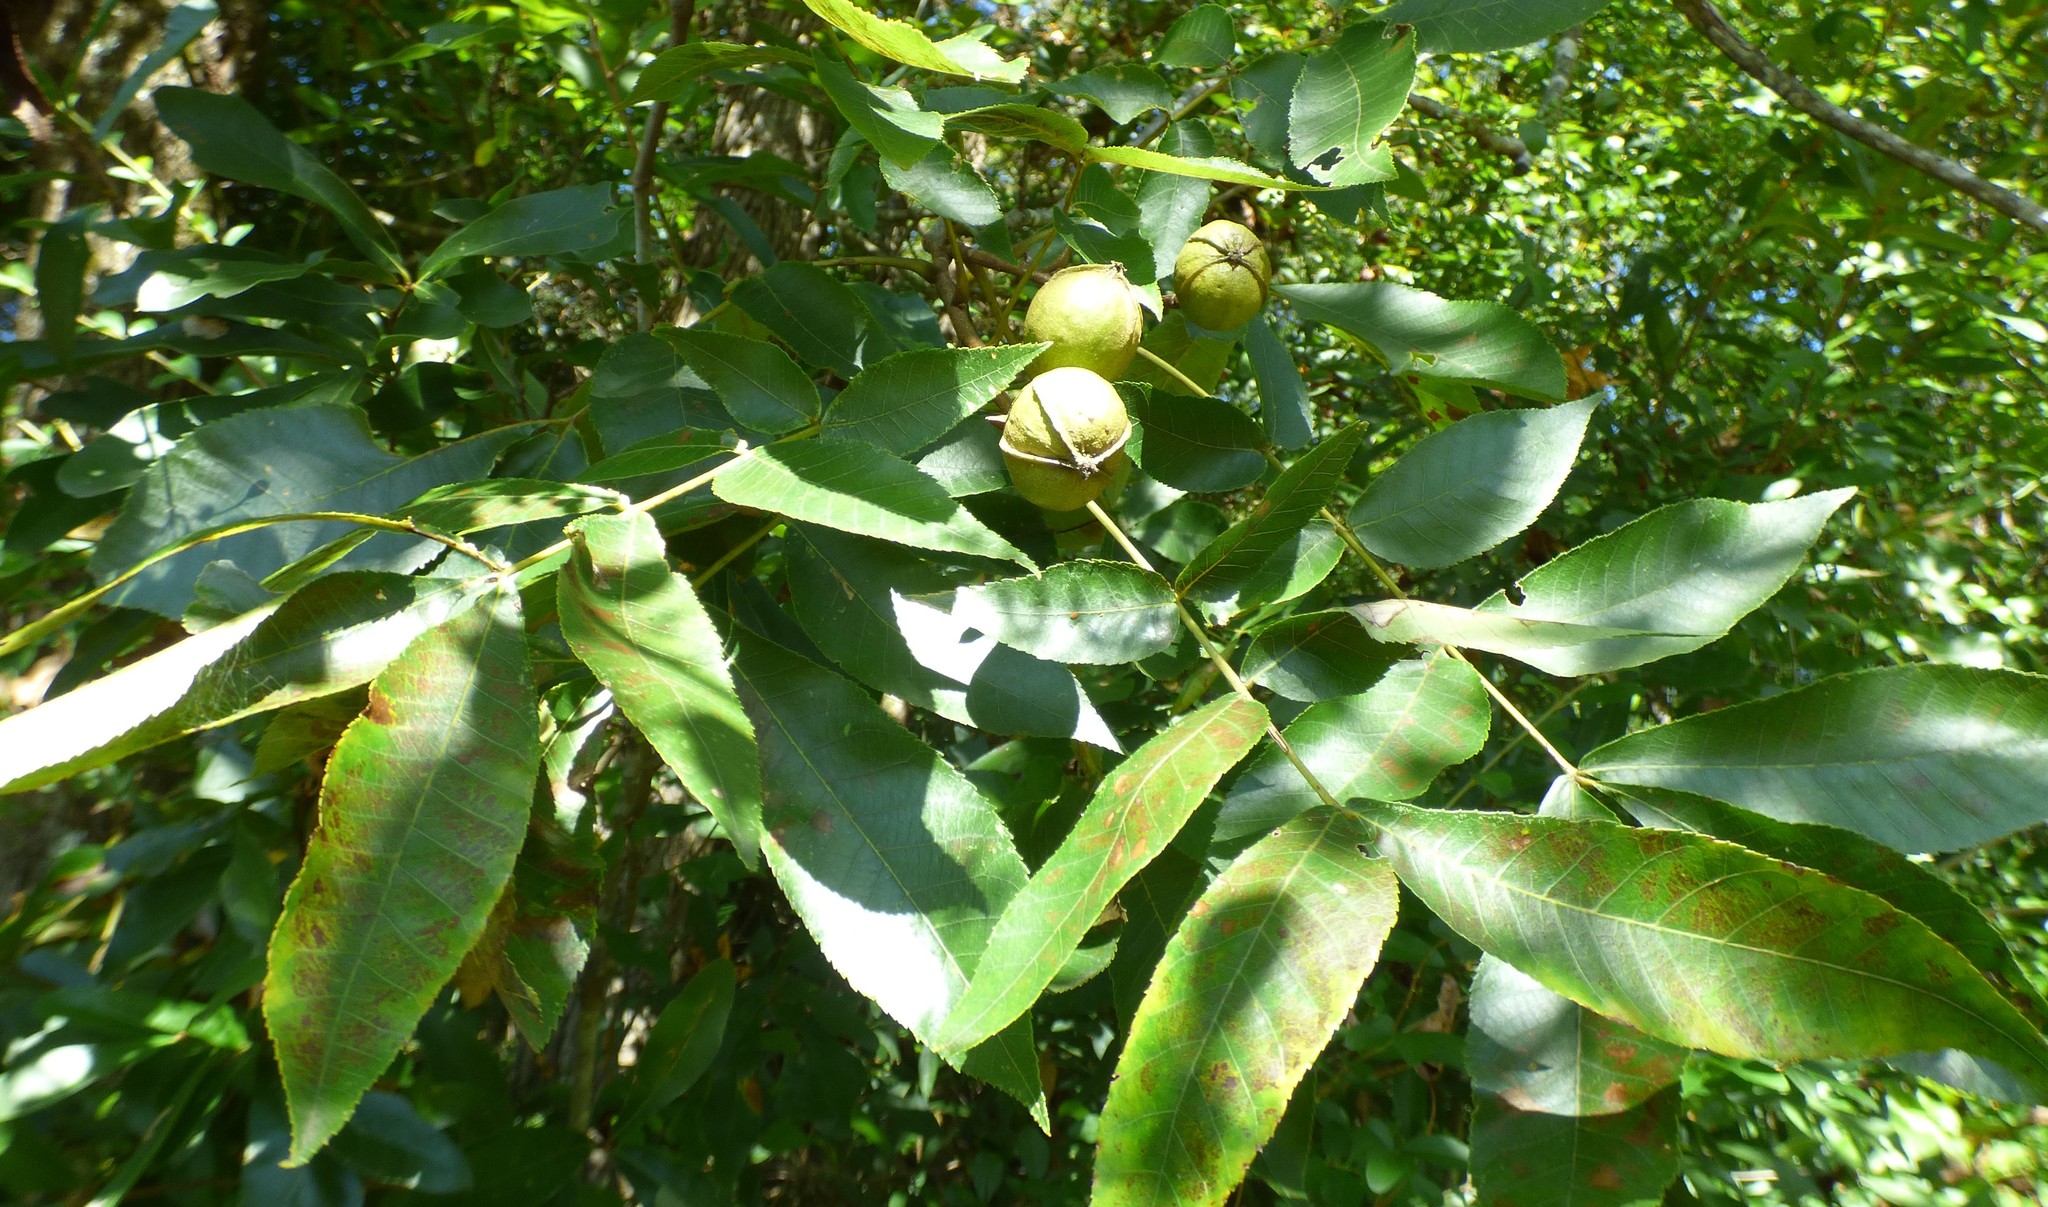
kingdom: Plantae
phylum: Tracheophyta
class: Magnoliopsida
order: Fagales
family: Juglandaceae
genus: Carya
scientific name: Carya cordiformis
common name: Bitternut hickory
